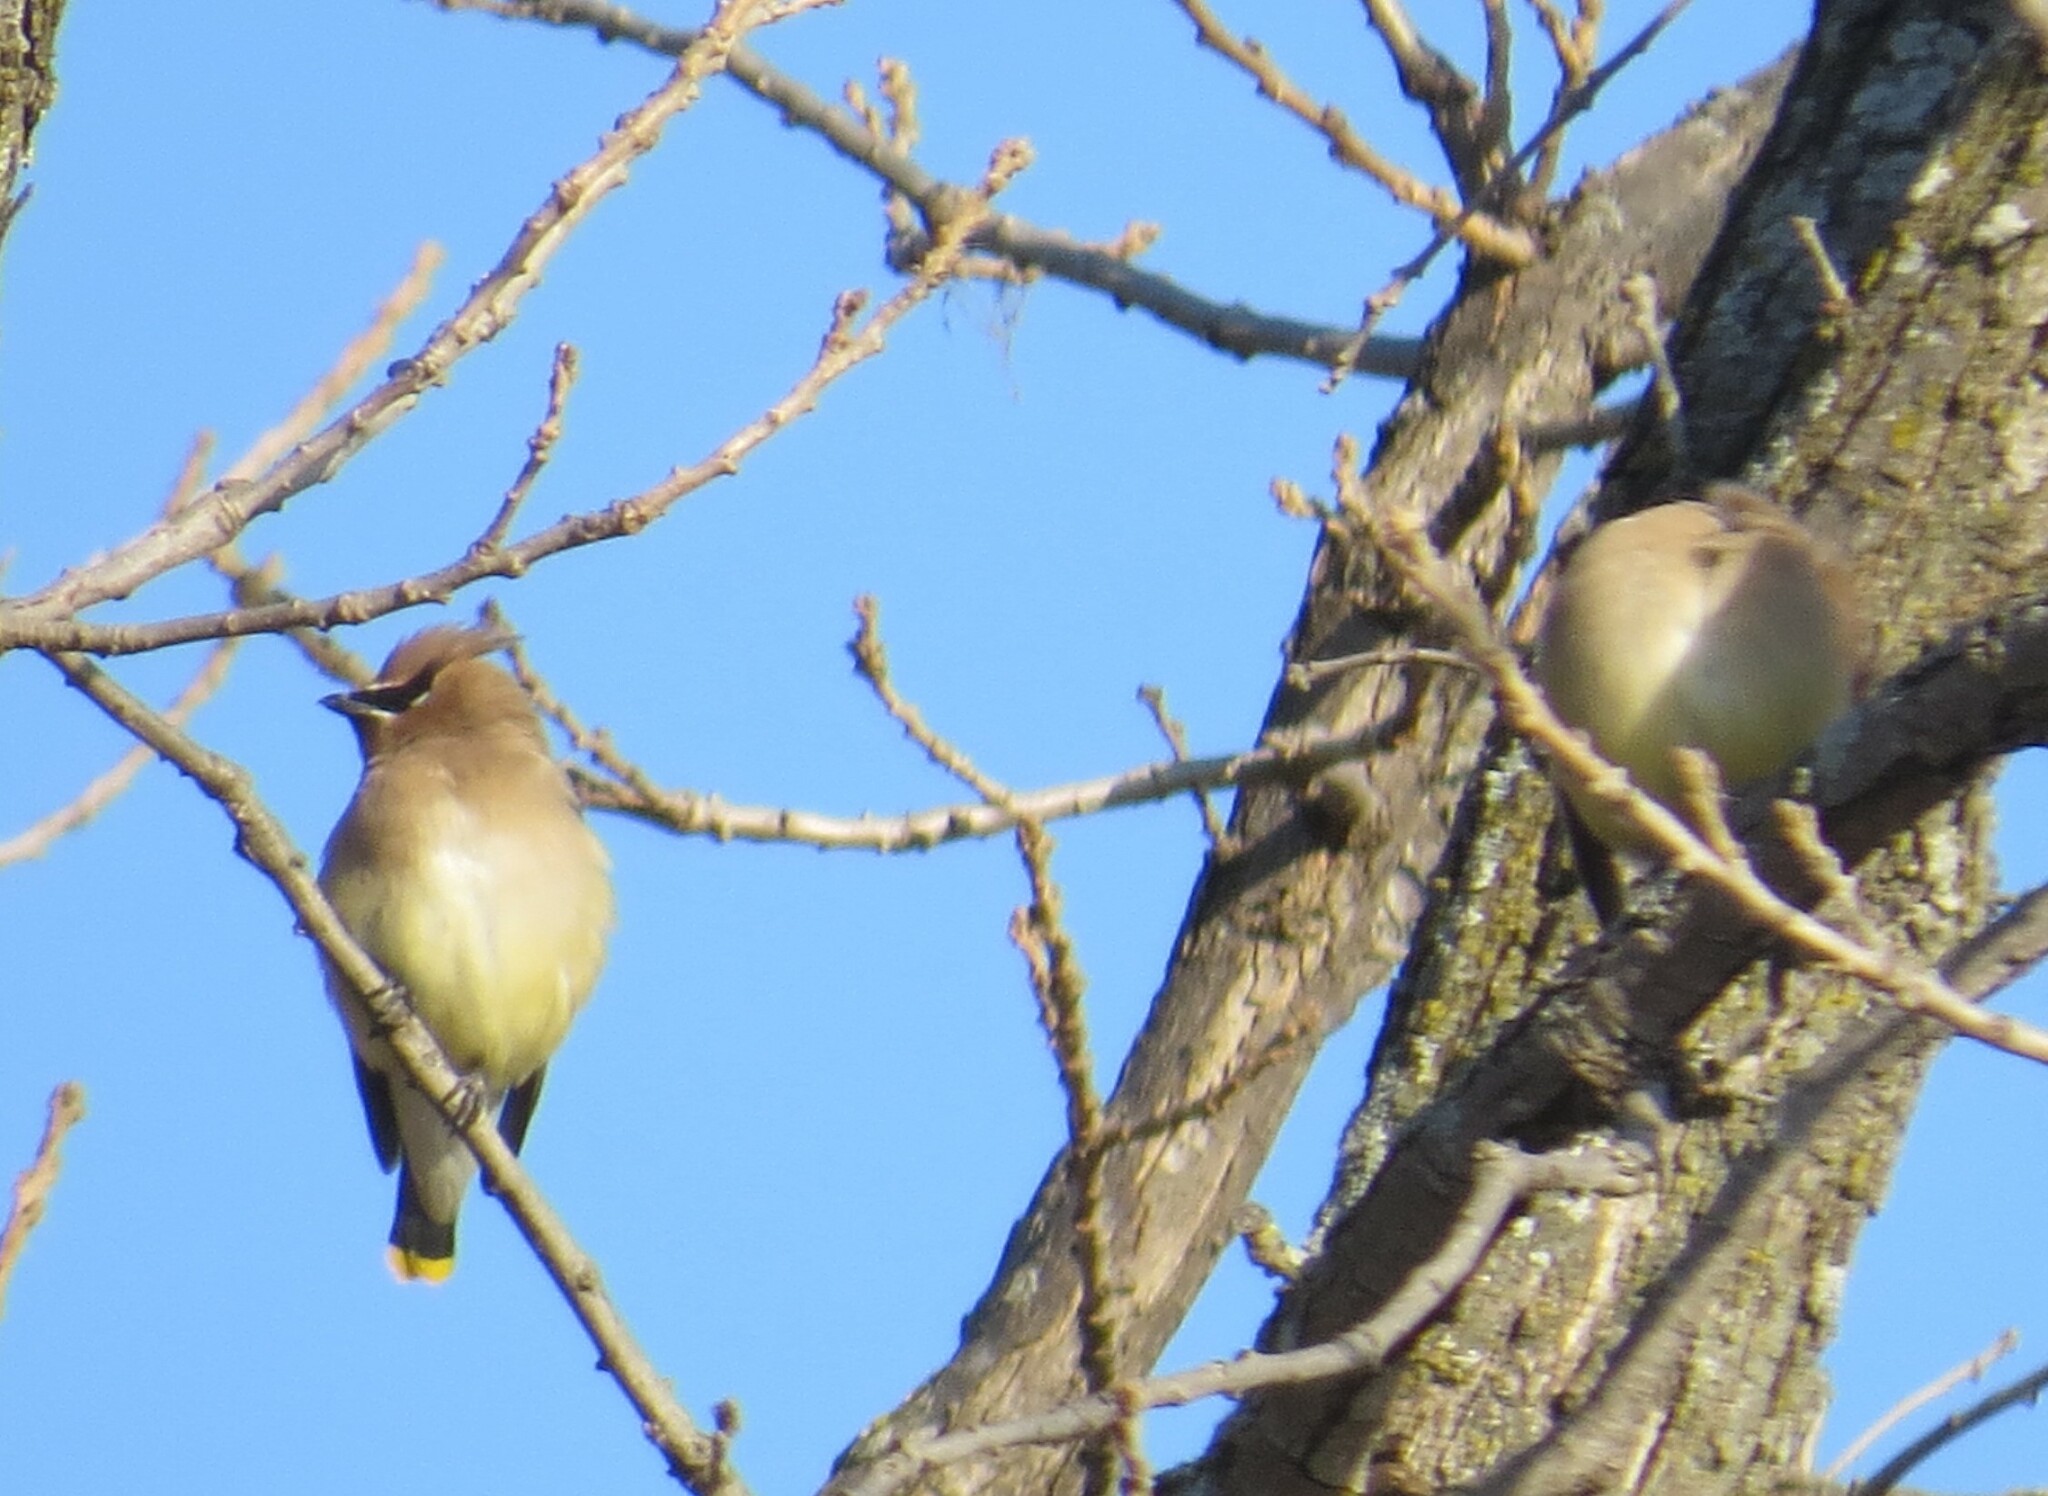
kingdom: Animalia
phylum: Chordata
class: Aves
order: Passeriformes
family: Bombycillidae
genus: Bombycilla
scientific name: Bombycilla cedrorum
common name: Cedar waxwing
